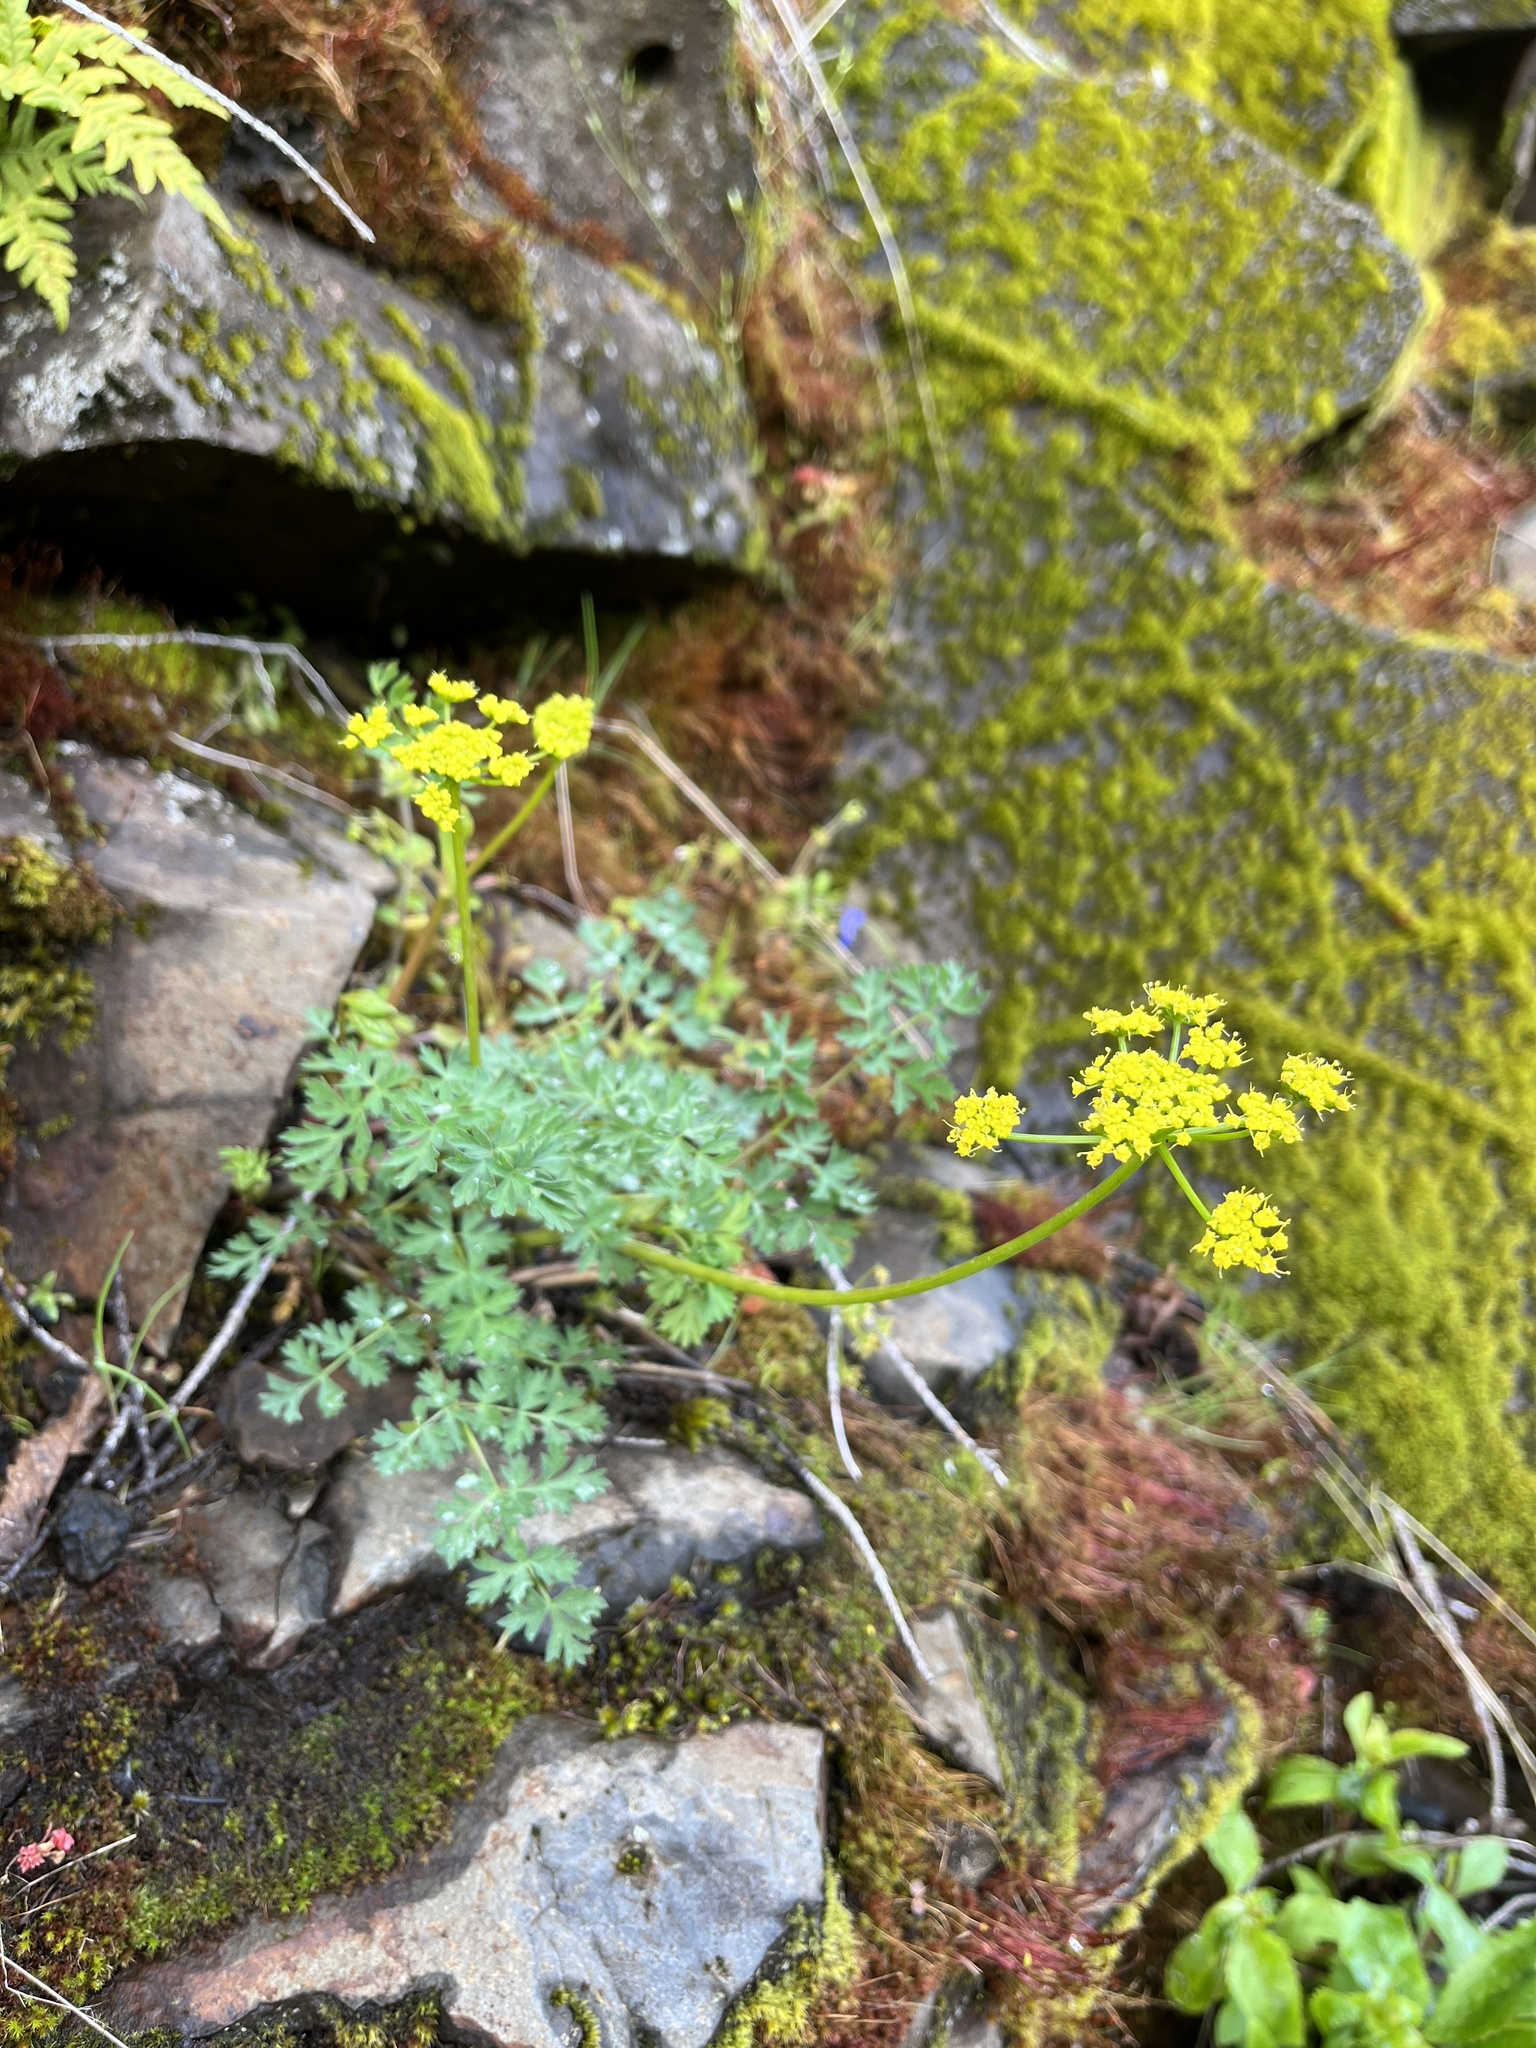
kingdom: Plantae
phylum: Tracheophyta
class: Magnoliopsida
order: Apiales
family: Apiaceae
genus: Lomatium
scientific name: Lomatium martindalei
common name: Cascade desert-parsley
